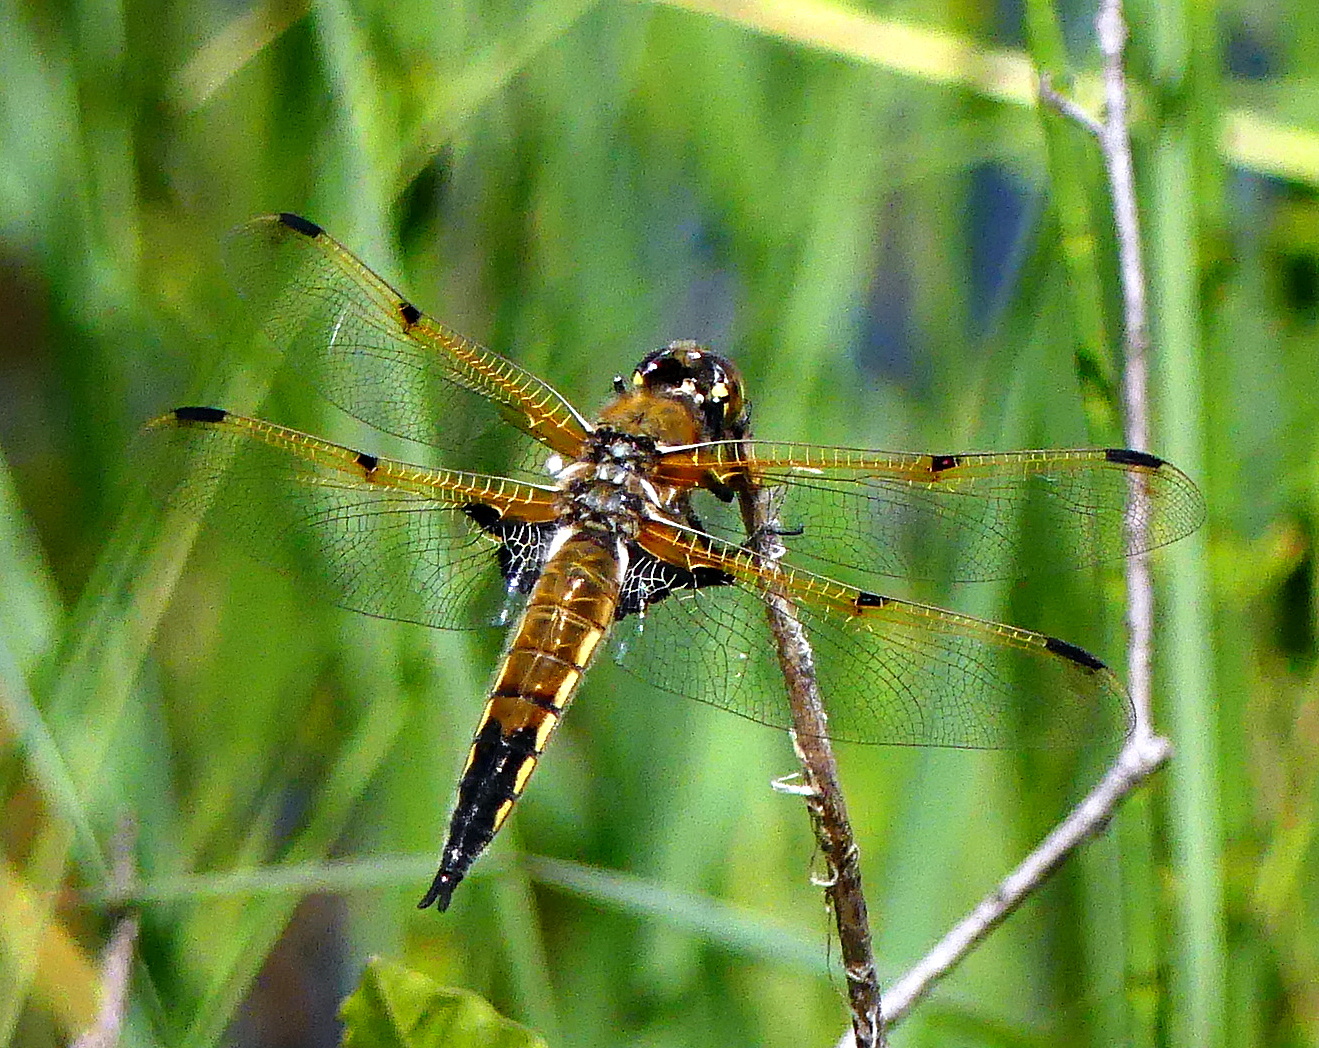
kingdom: Animalia
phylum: Arthropoda
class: Insecta
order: Odonata
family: Libellulidae
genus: Libellula
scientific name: Libellula quadrimaculata
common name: Four-spotted chaser
